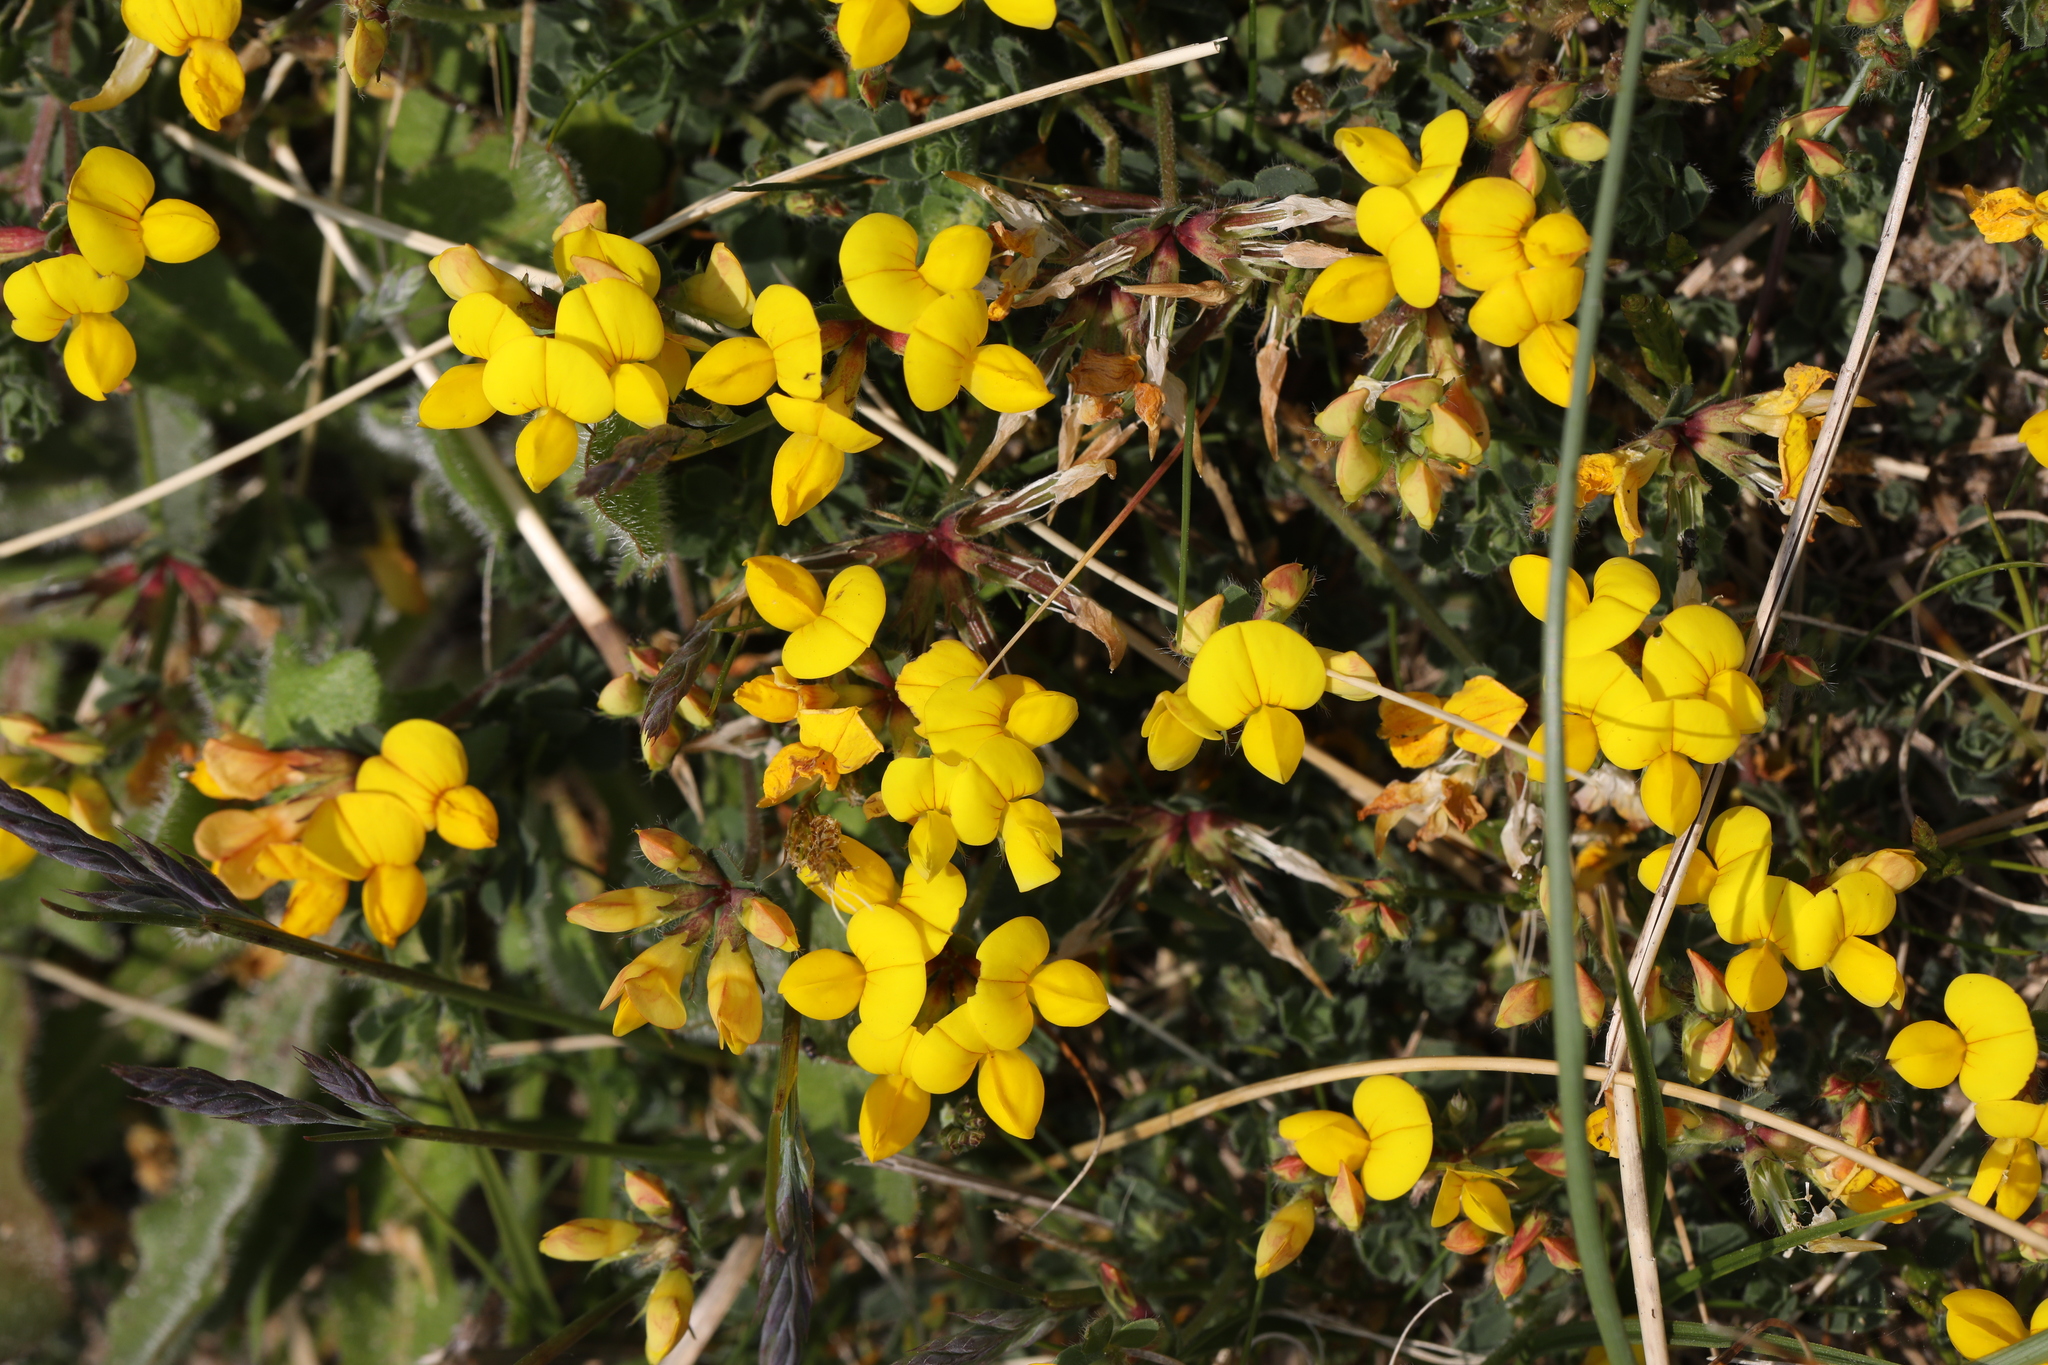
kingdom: Plantae
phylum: Tracheophyta
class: Magnoliopsida
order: Fabales
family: Fabaceae
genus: Lotus
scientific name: Lotus corniculatus
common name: Common bird's-foot-trefoil
